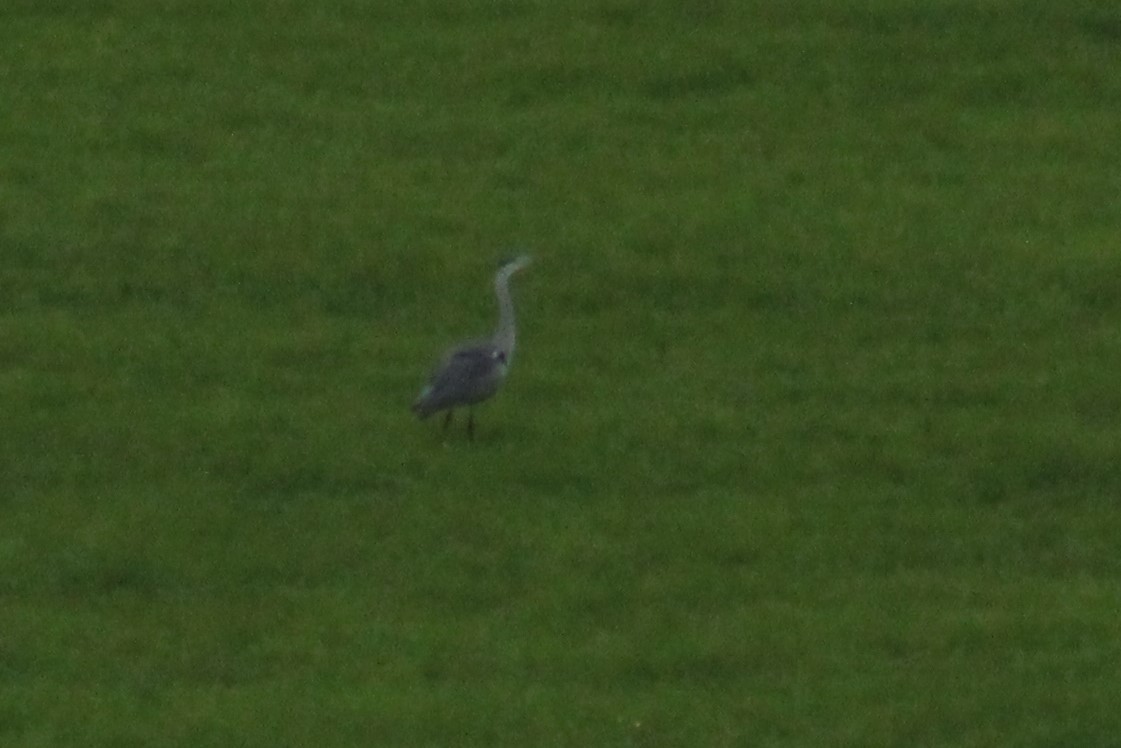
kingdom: Animalia
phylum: Chordata
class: Aves
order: Pelecaniformes
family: Ardeidae
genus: Ardea
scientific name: Ardea cinerea
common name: Grey heron
